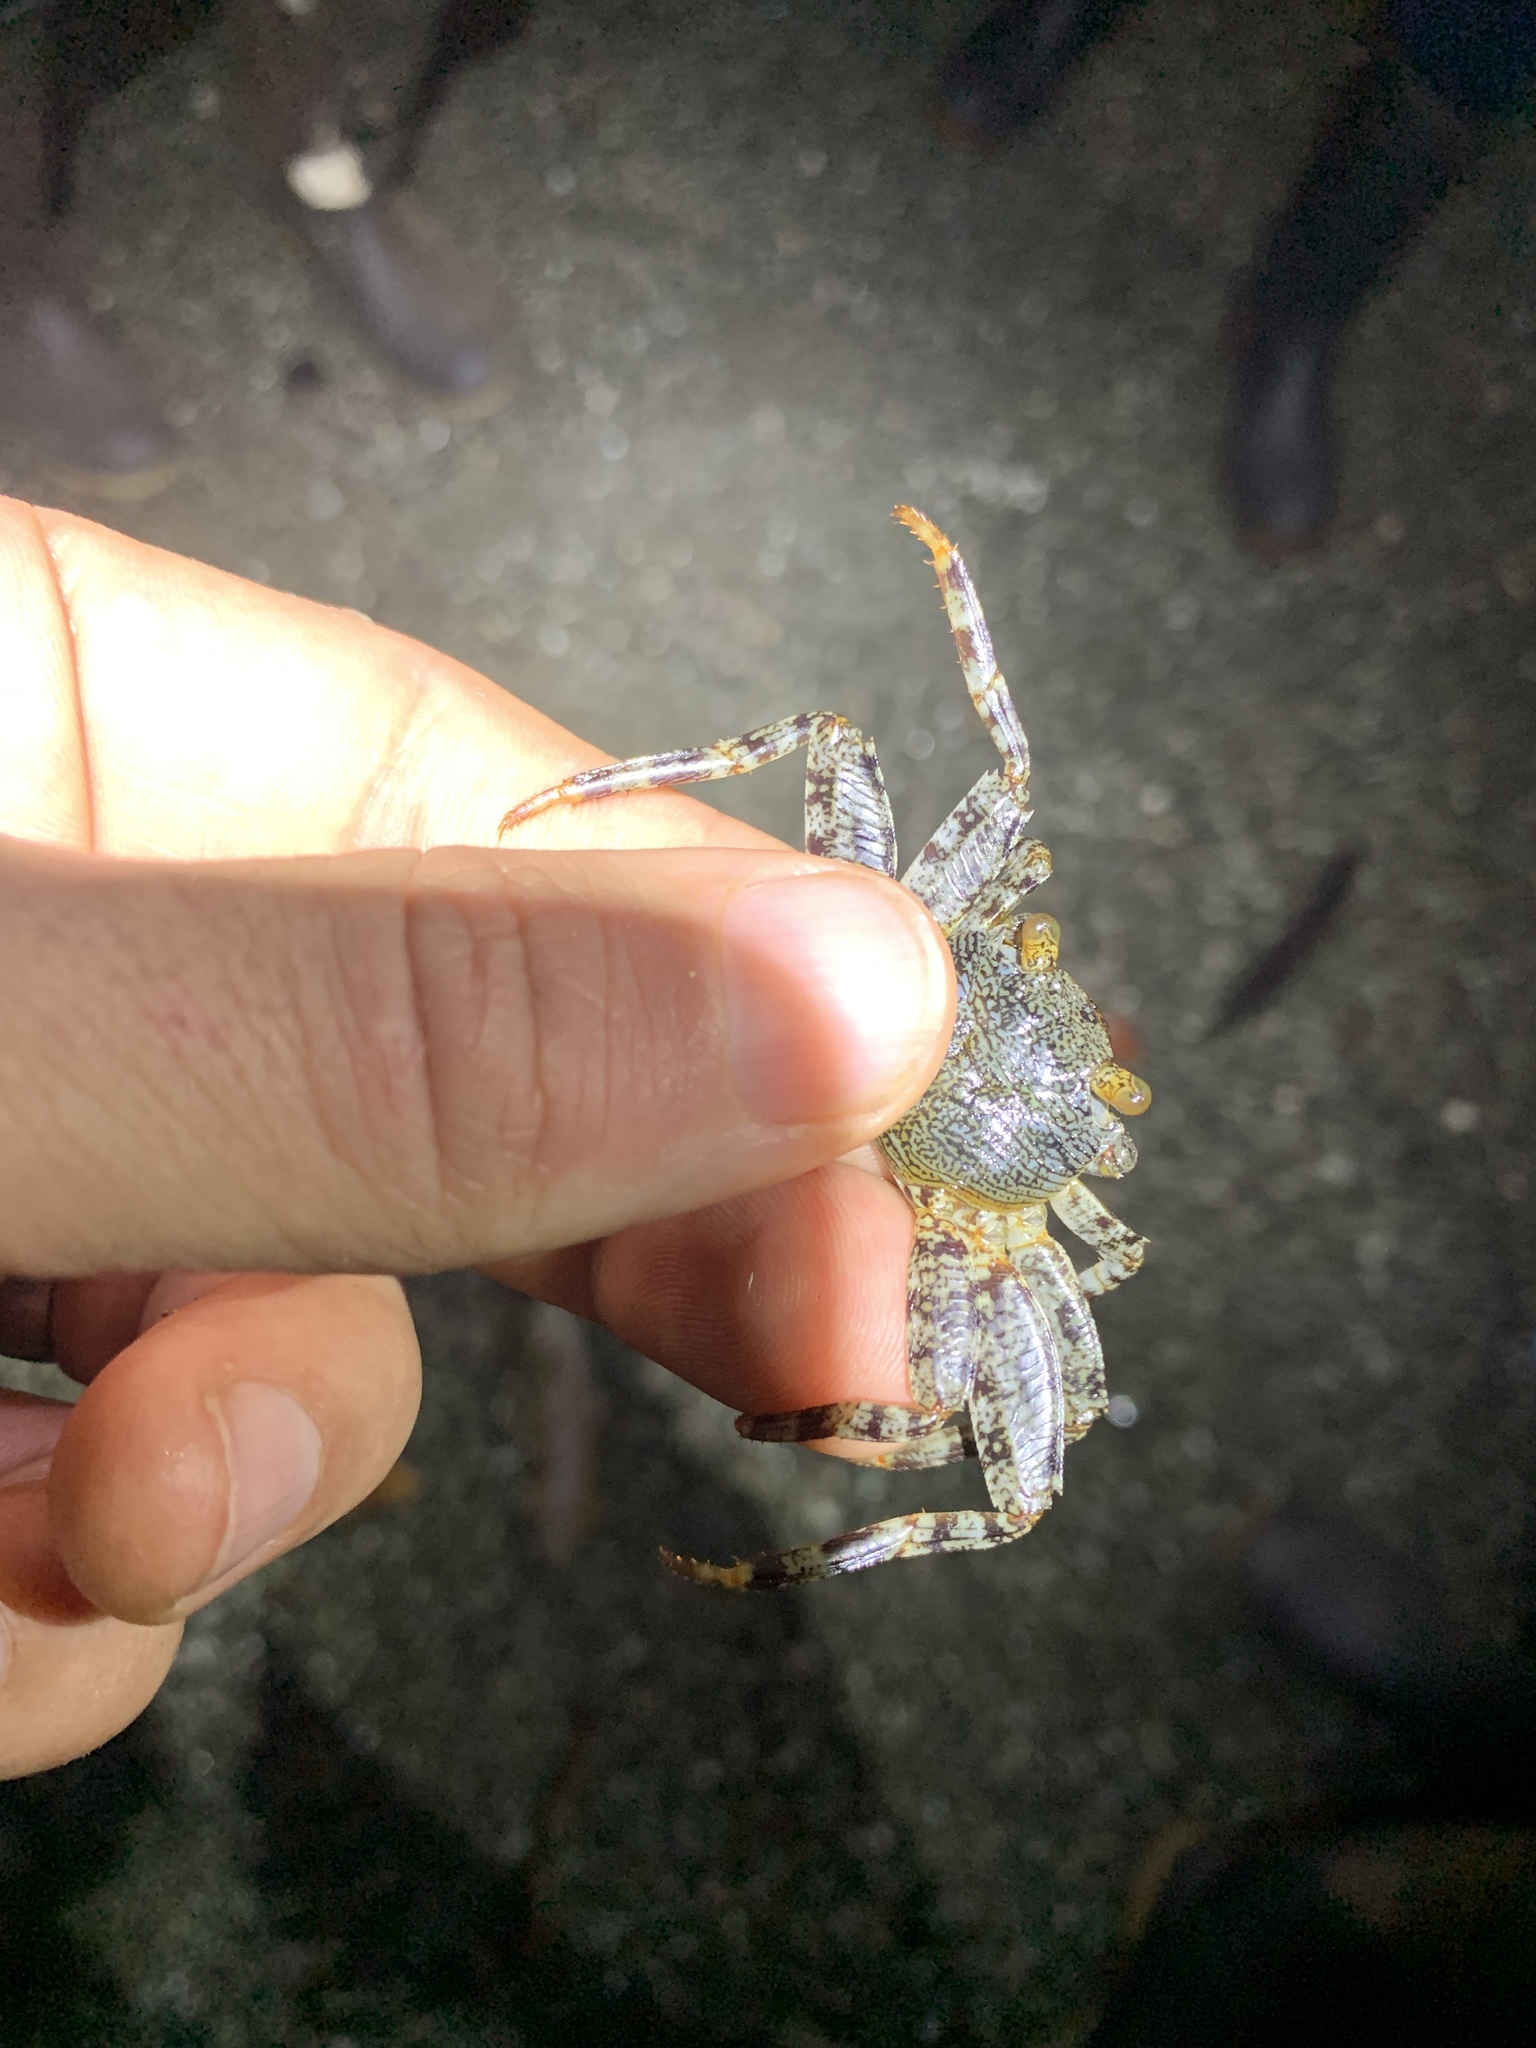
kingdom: Animalia
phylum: Arthropoda
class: Malacostraca
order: Decapoda
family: Grapsidae
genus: Grapsus
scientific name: Grapsus grapsus
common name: Sally lightfoot
